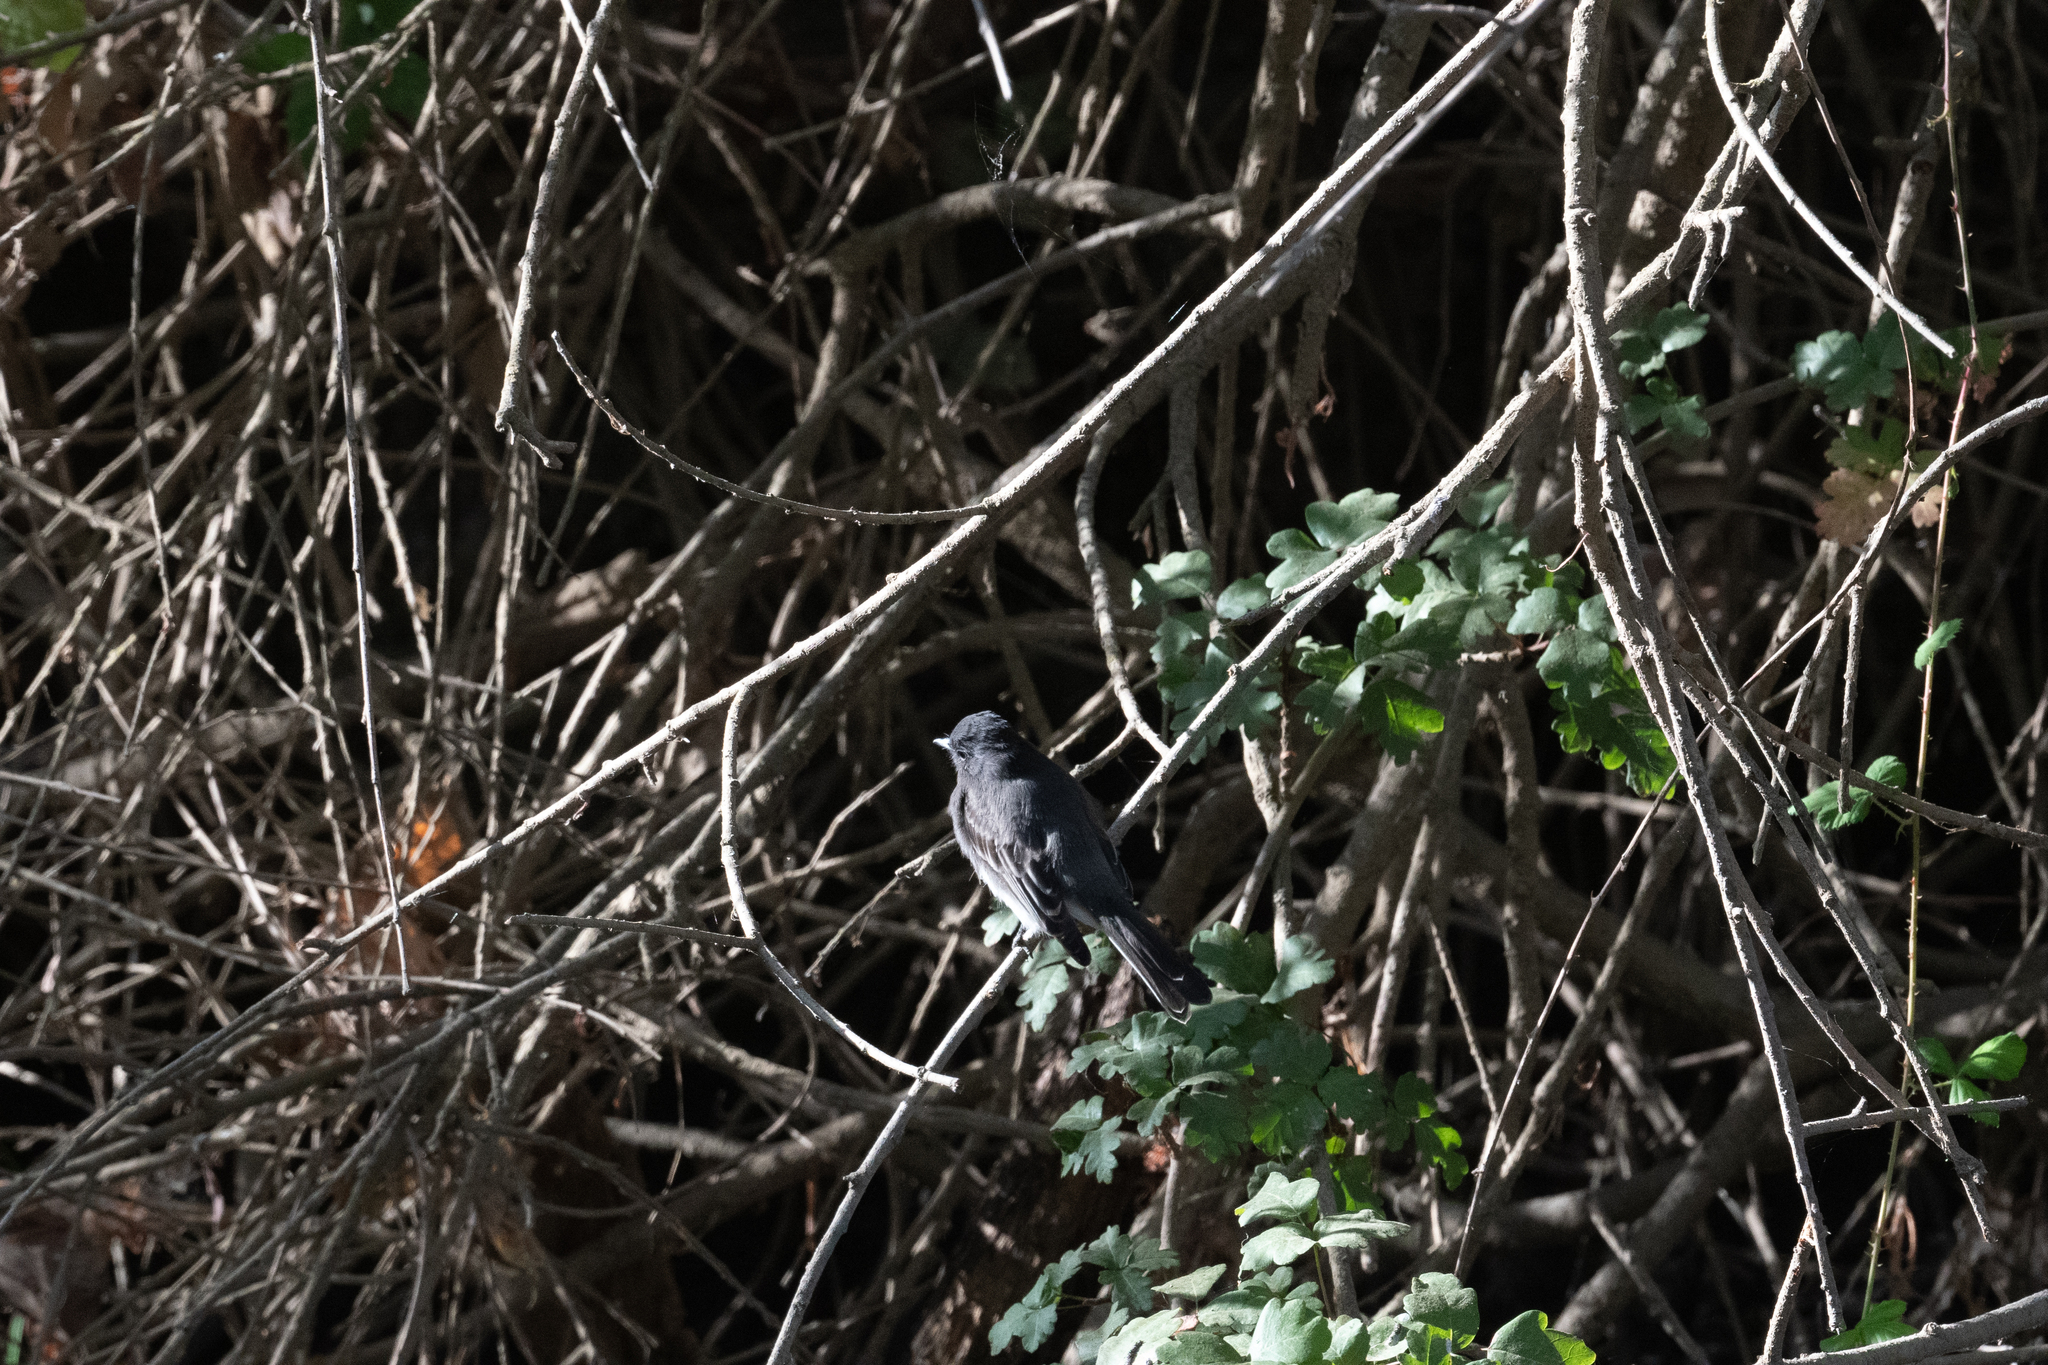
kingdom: Animalia
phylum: Chordata
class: Aves
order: Passeriformes
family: Tyrannidae
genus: Sayornis
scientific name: Sayornis nigricans
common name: Black phoebe
